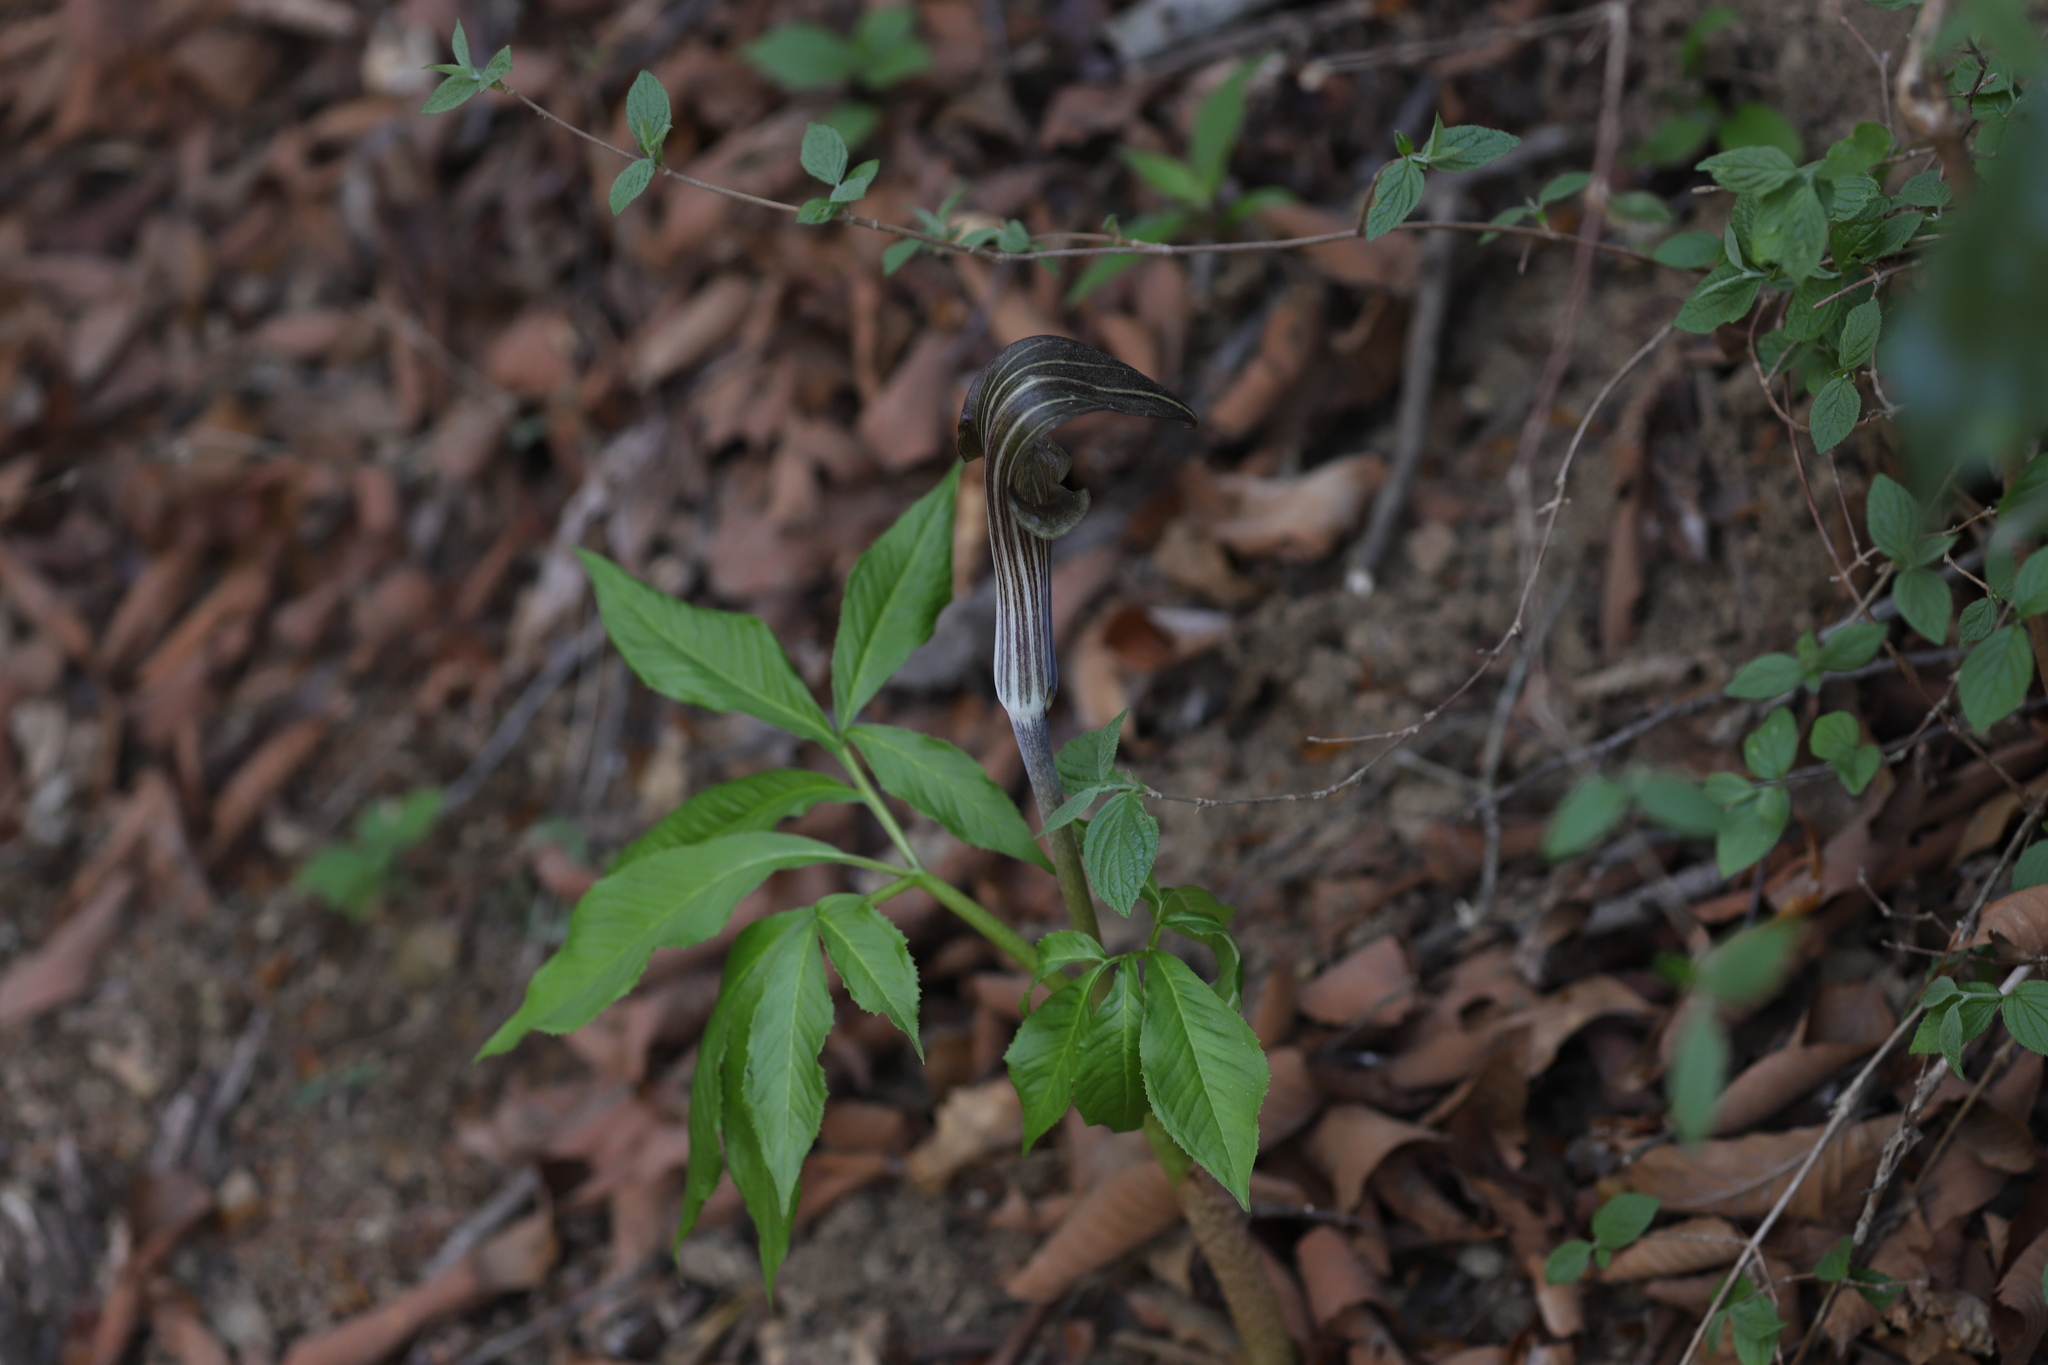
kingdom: Plantae
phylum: Tracheophyta
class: Liliopsida
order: Alismatales
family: Araceae
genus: Arisaema
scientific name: Arisaema limbatum
